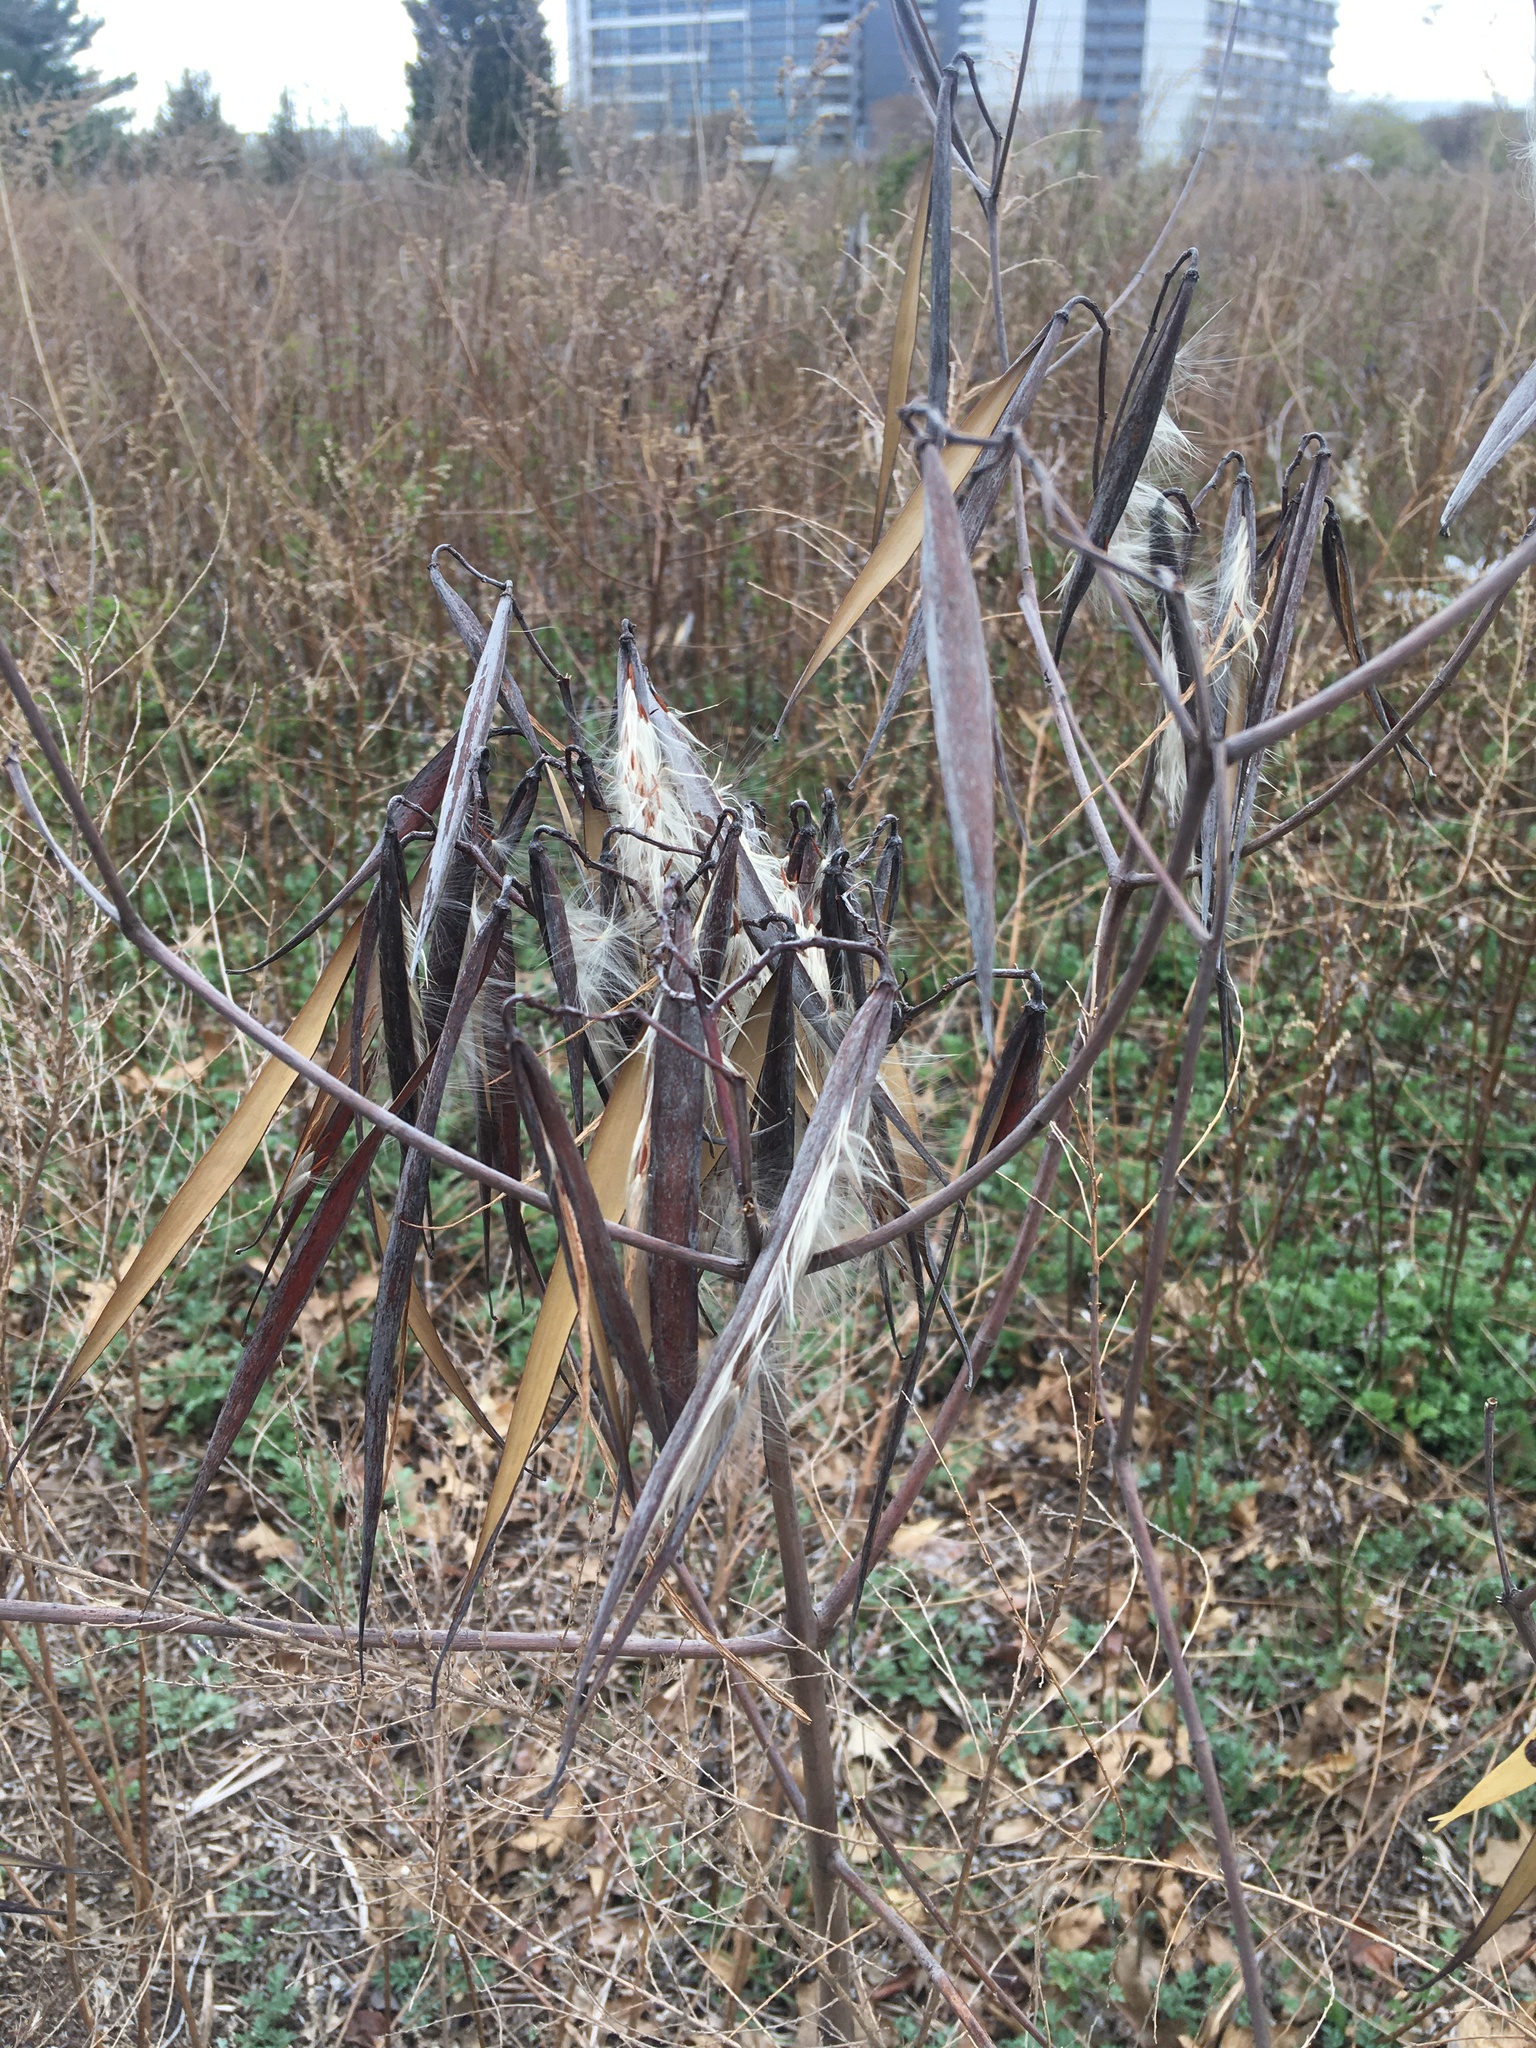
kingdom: Plantae
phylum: Tracheophyta
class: Magnoliopsida
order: Gentianales
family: Apocynaceae
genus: Apocynum
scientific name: Apocynum cannabinum
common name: Hemp dogbane
